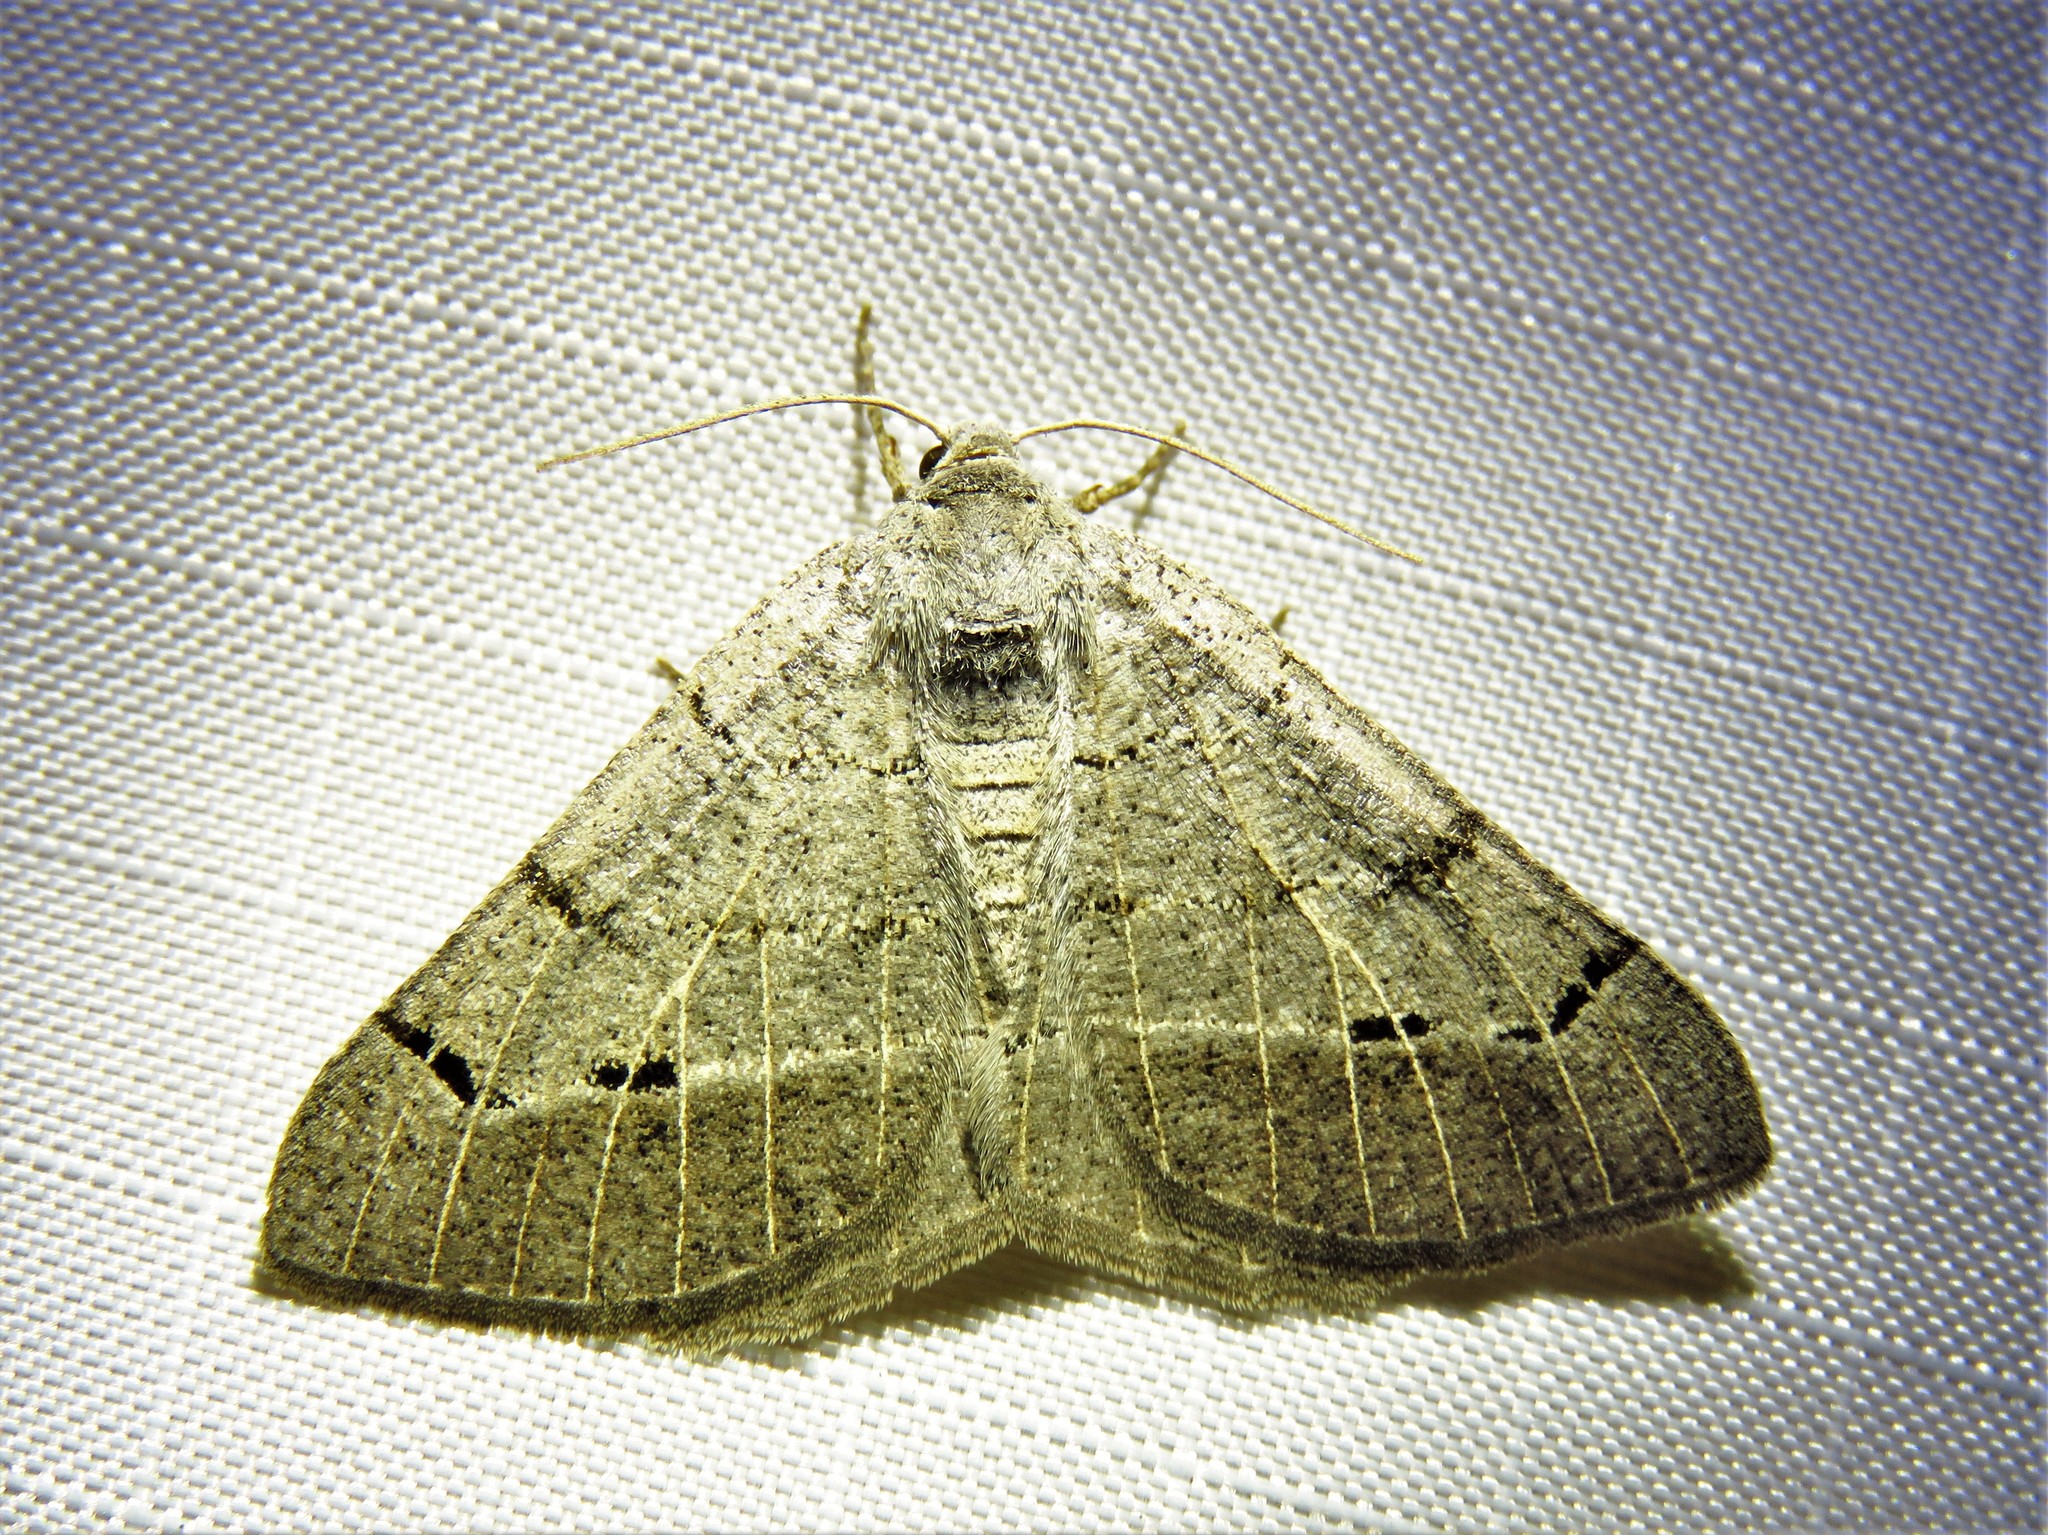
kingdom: Animalia
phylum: Arthropoda
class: Insecta
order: Lepidoptera
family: Geometridae
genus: Isturgia
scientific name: Isturgia dislocaria
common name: Pale-viened enconista
